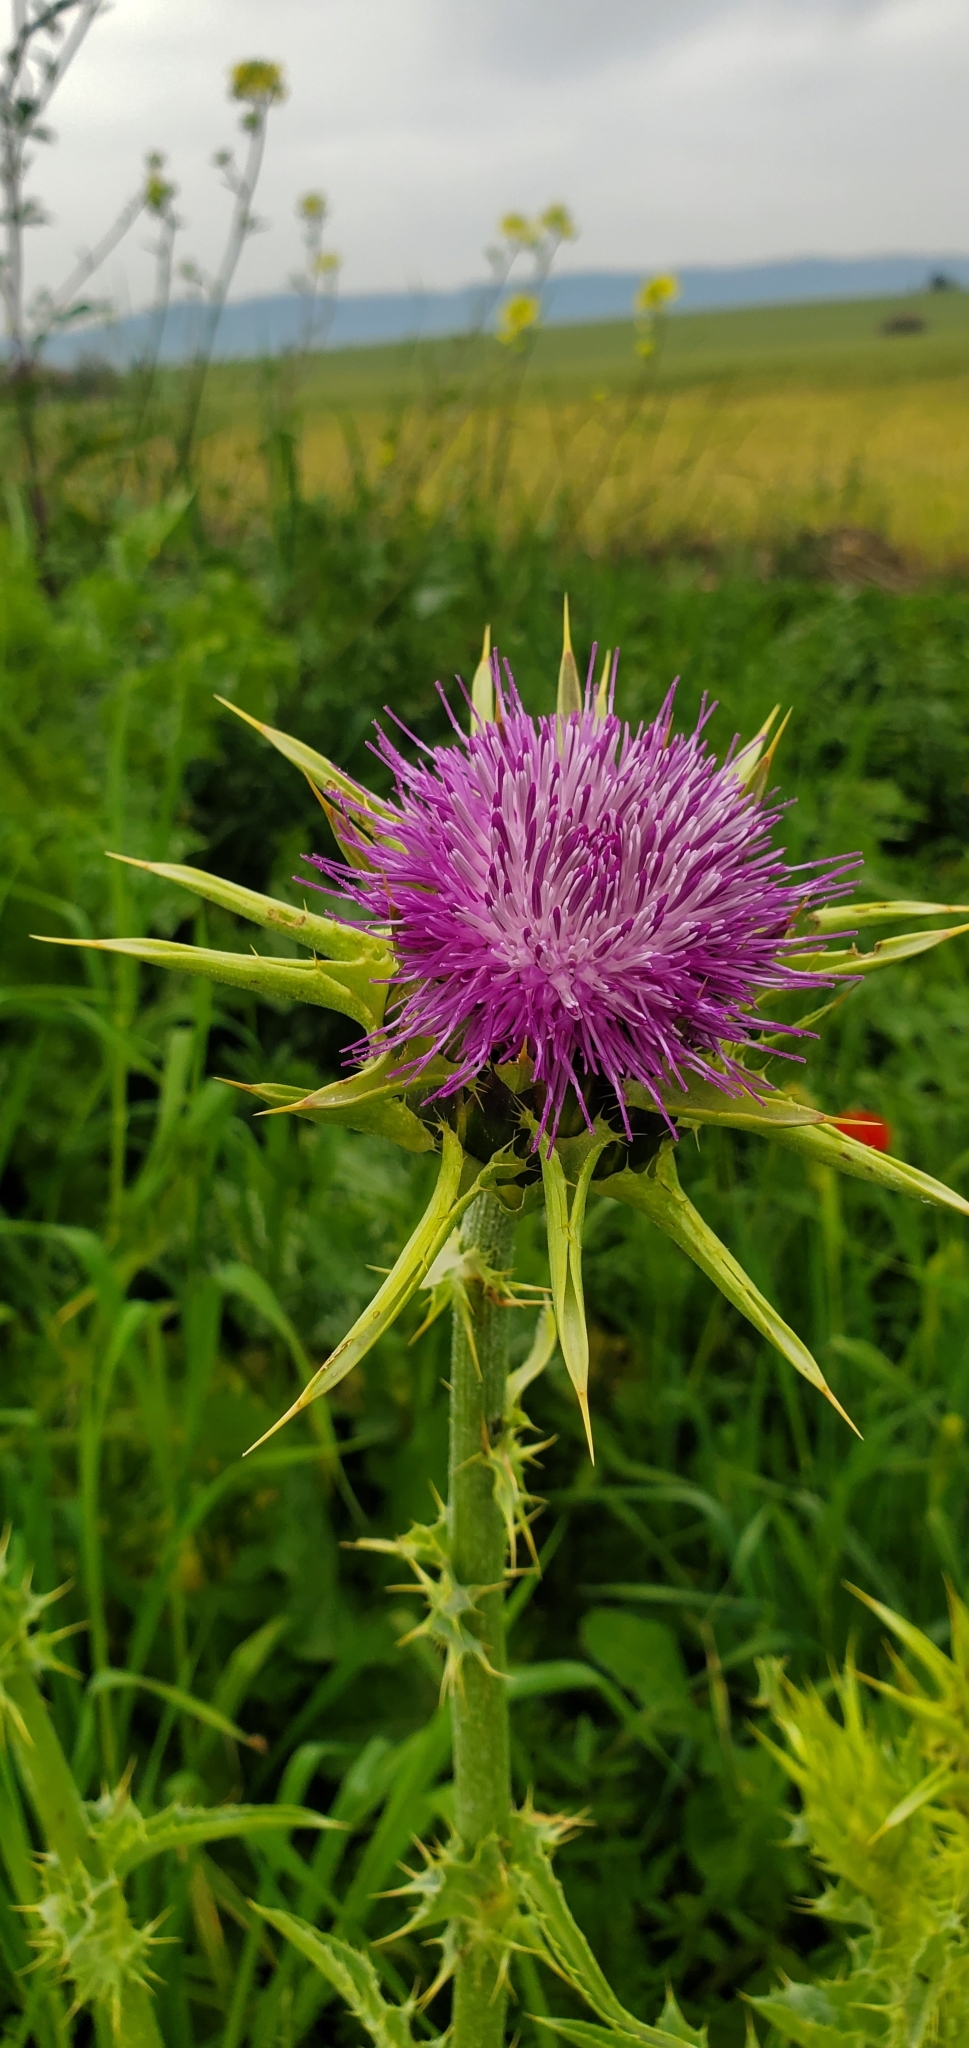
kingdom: Plantae
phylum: Tracheophyta
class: Magnoliopsida
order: Asterales
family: Asteraceae
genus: Silybum
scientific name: Silybum marianum
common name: Milk thistle
